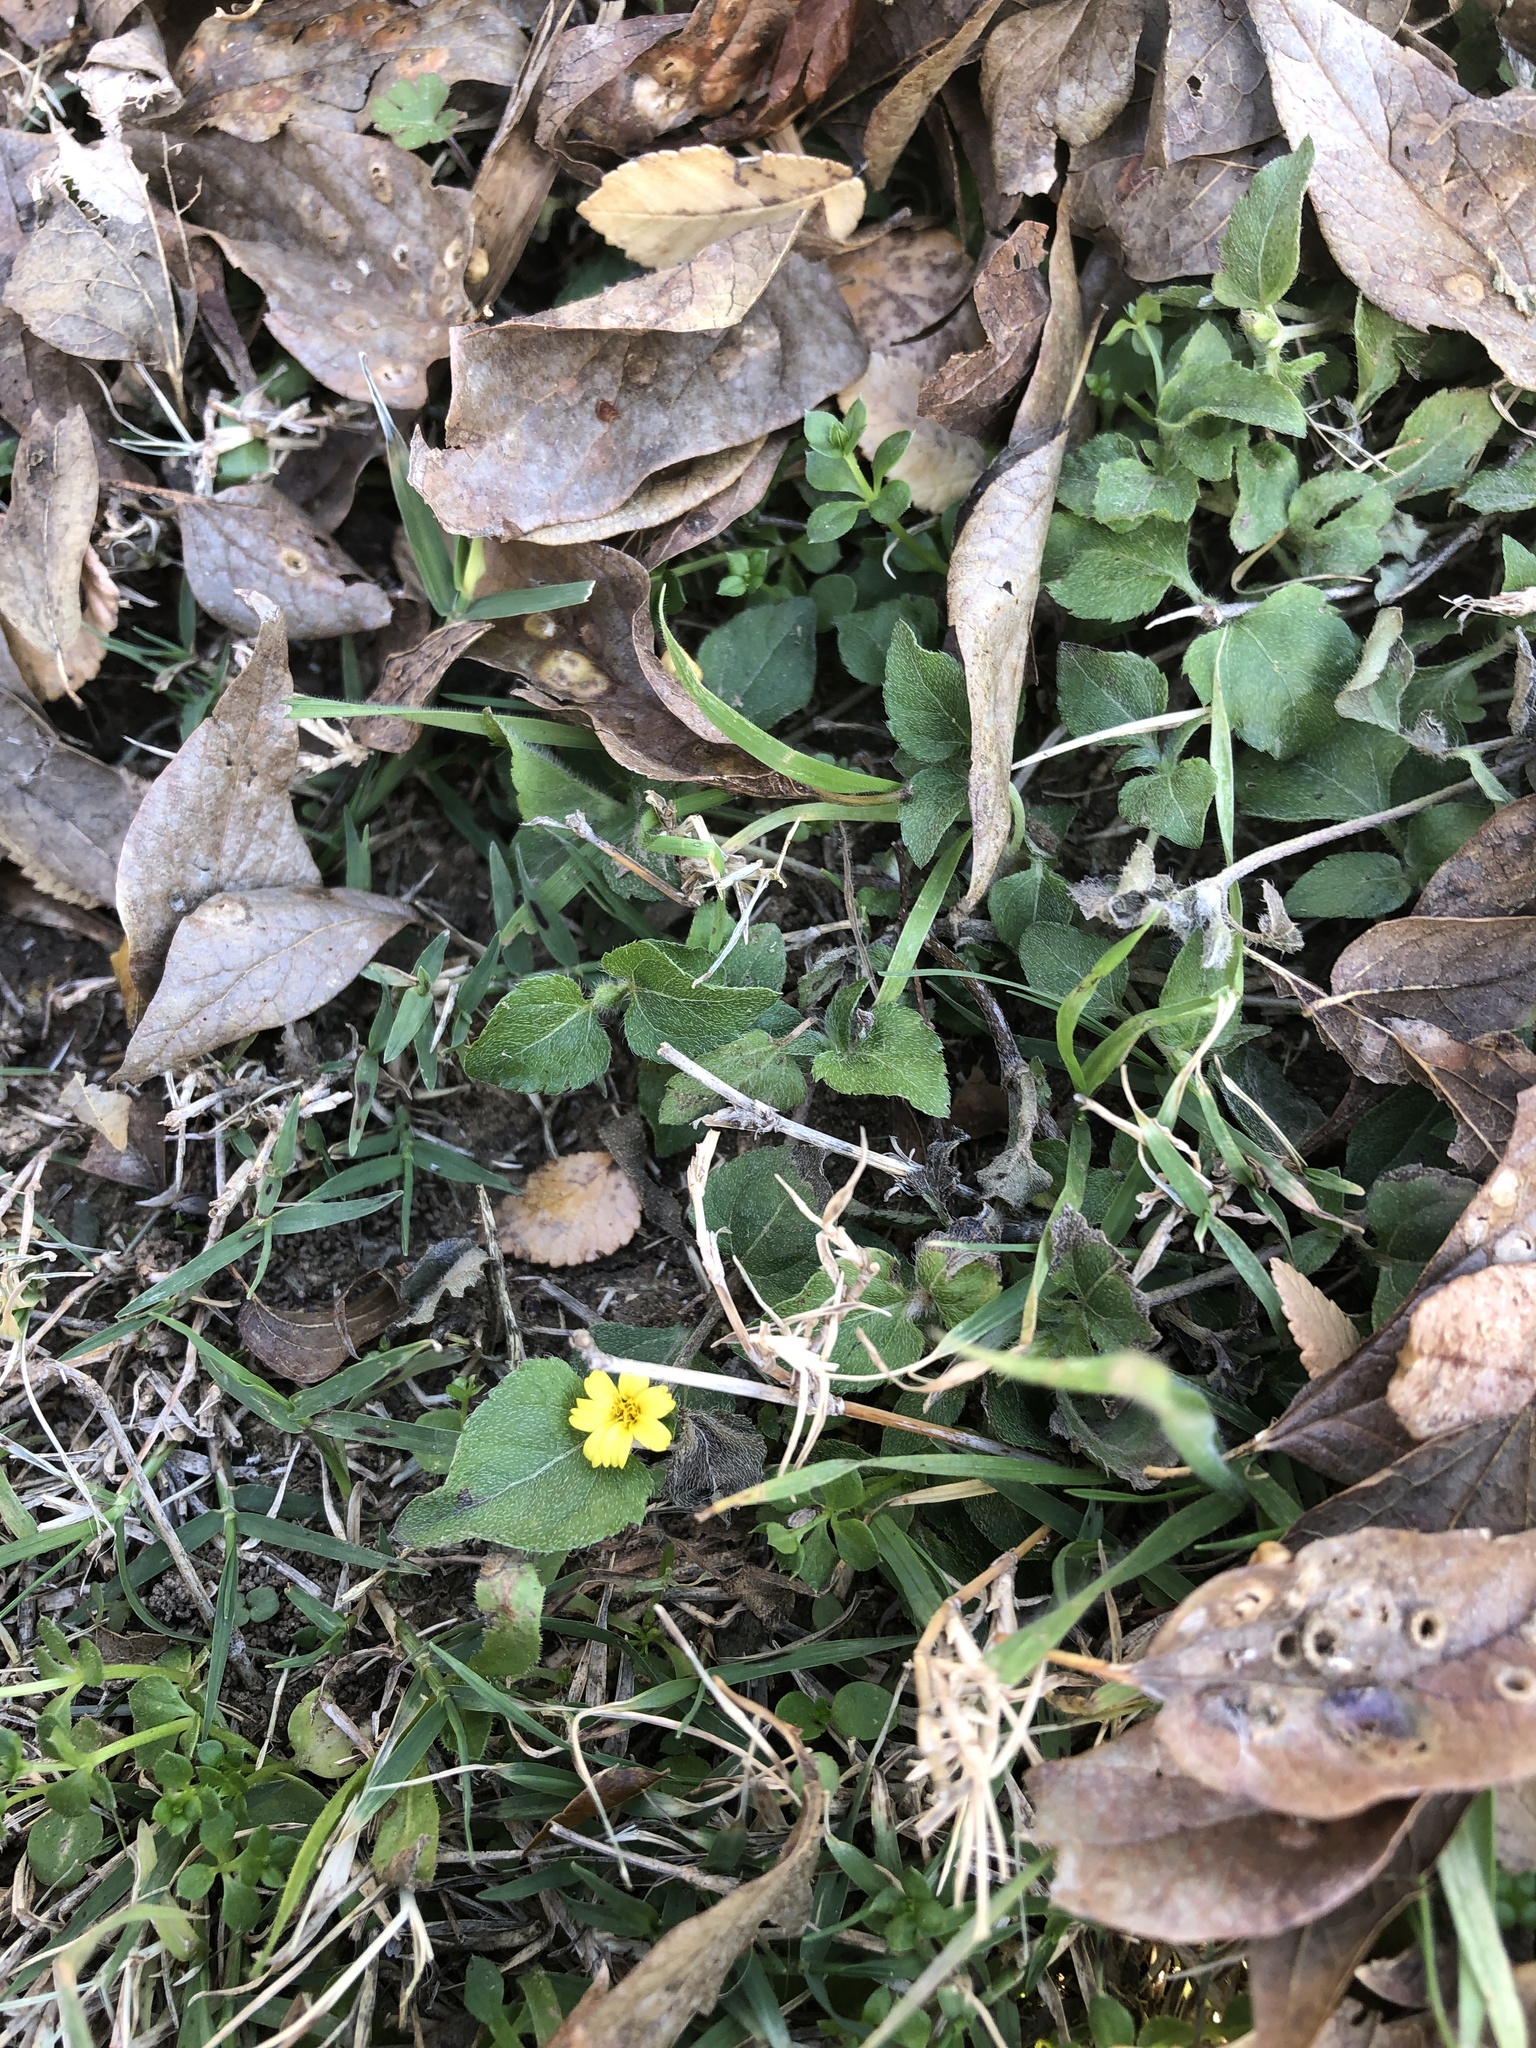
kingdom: Plantae
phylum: Tracheophyta
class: Magnoliopsida
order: Asterales
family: Asteraceae
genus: Calyptocarpus
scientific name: Calyptocarpus vialis
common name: Straggler daisy
